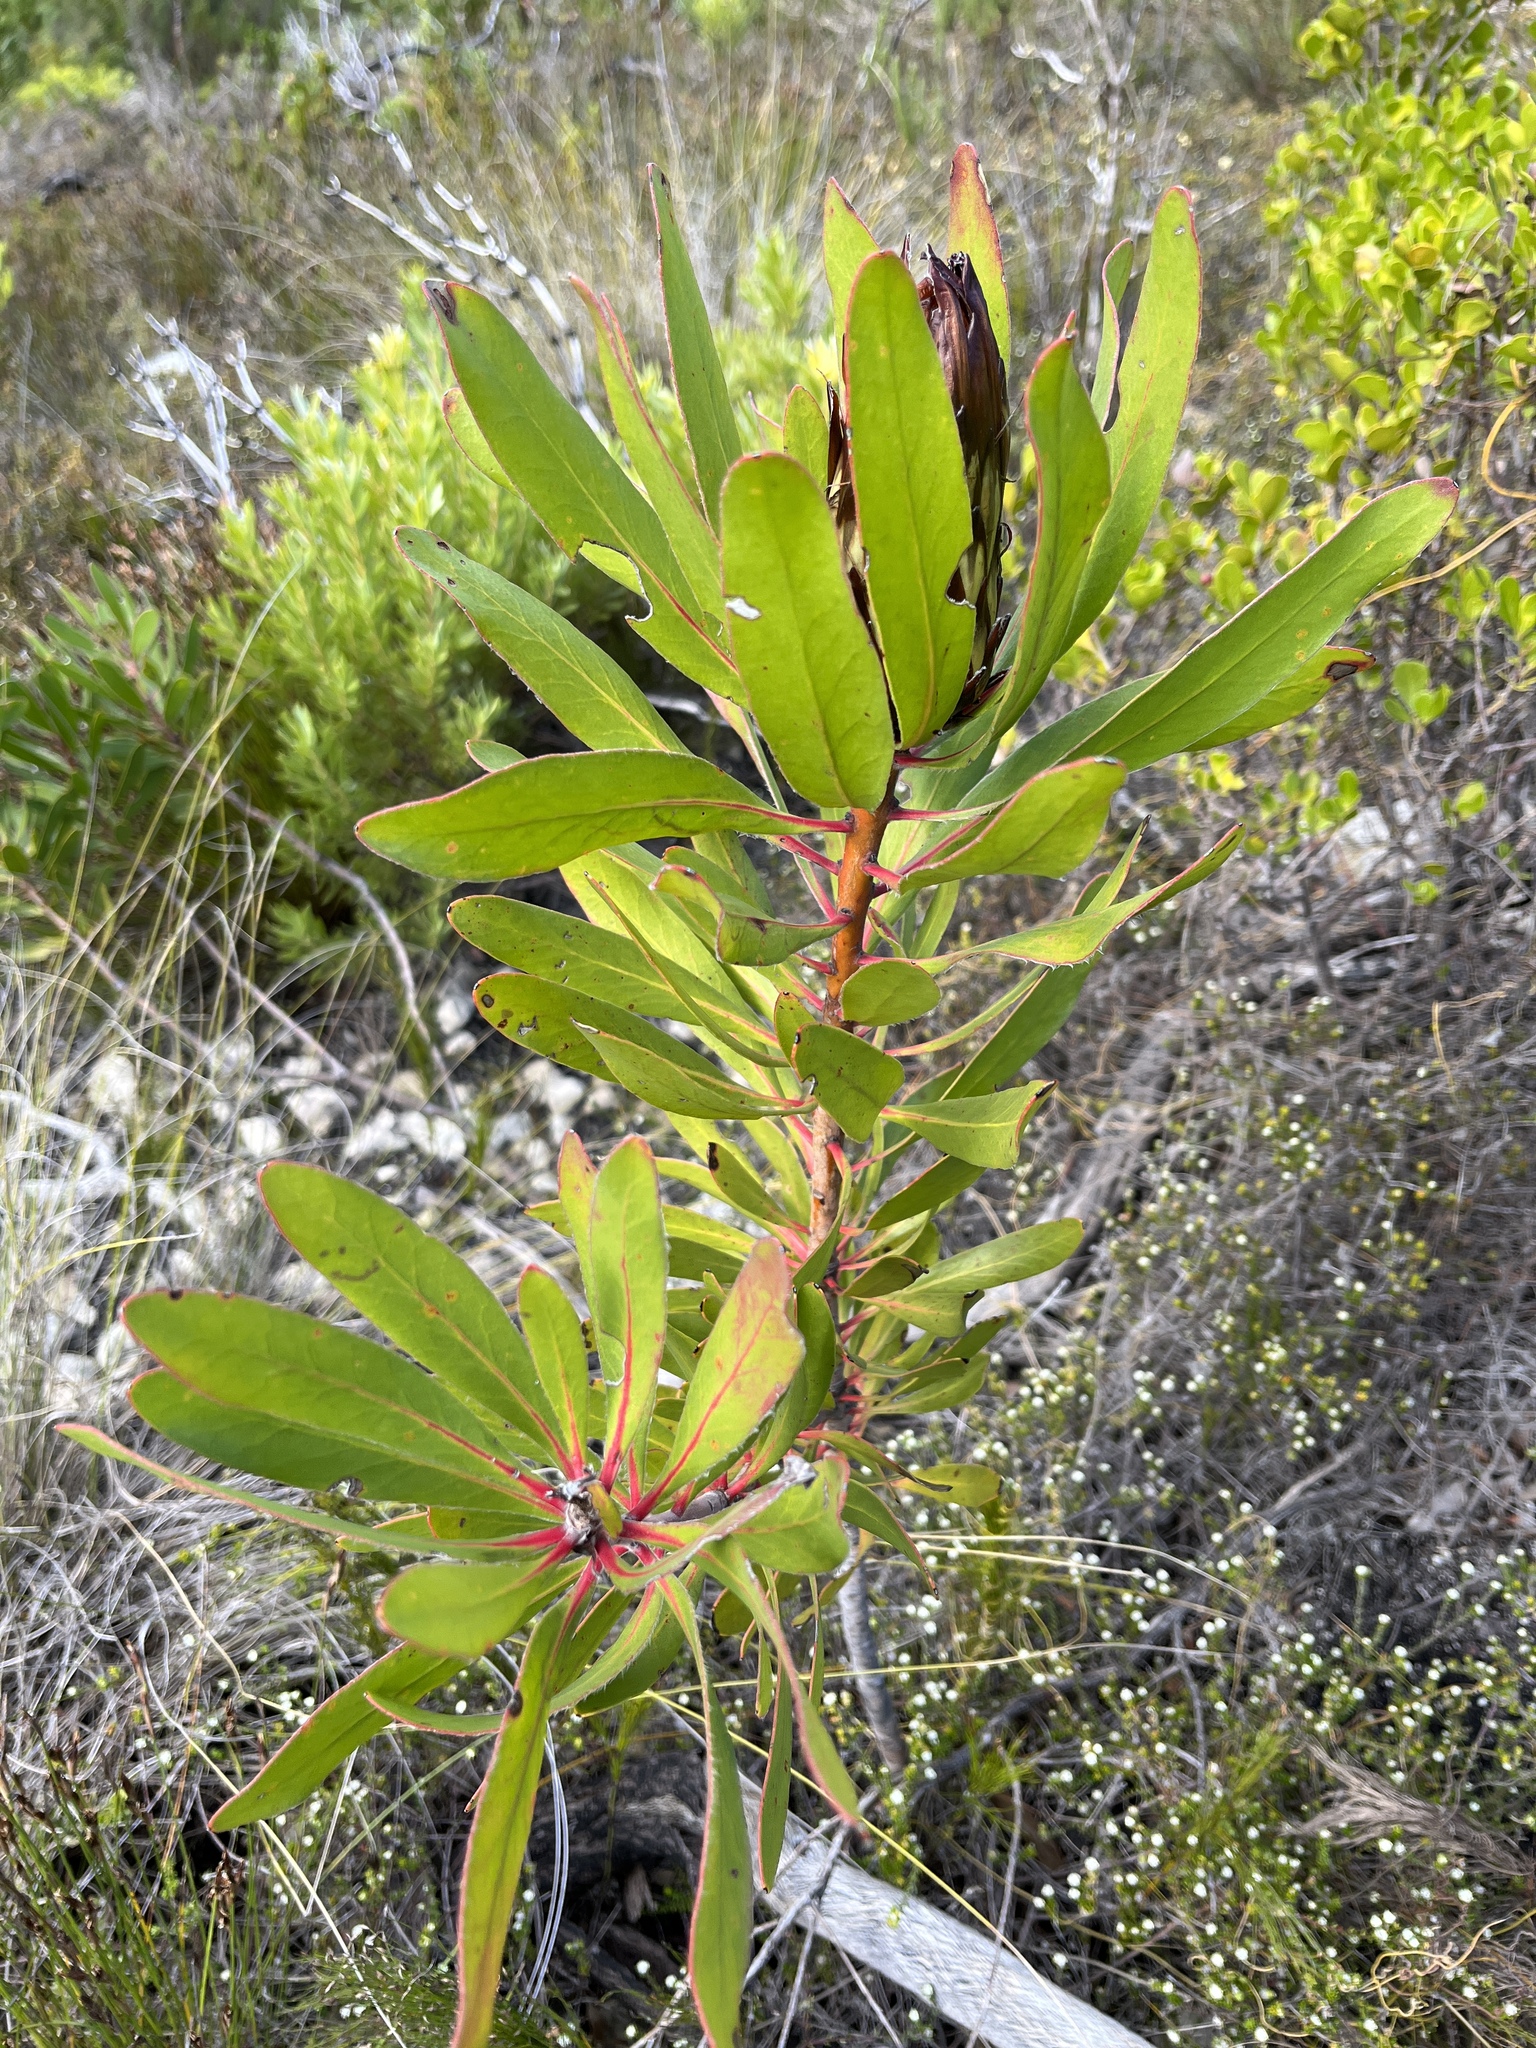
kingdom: Plantae
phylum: Tracheophyta
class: Magnoliopsida
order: Proteales
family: Proteaceae
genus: Protea
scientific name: Protea obtusifolia
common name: Bredasdorp sugarbush
